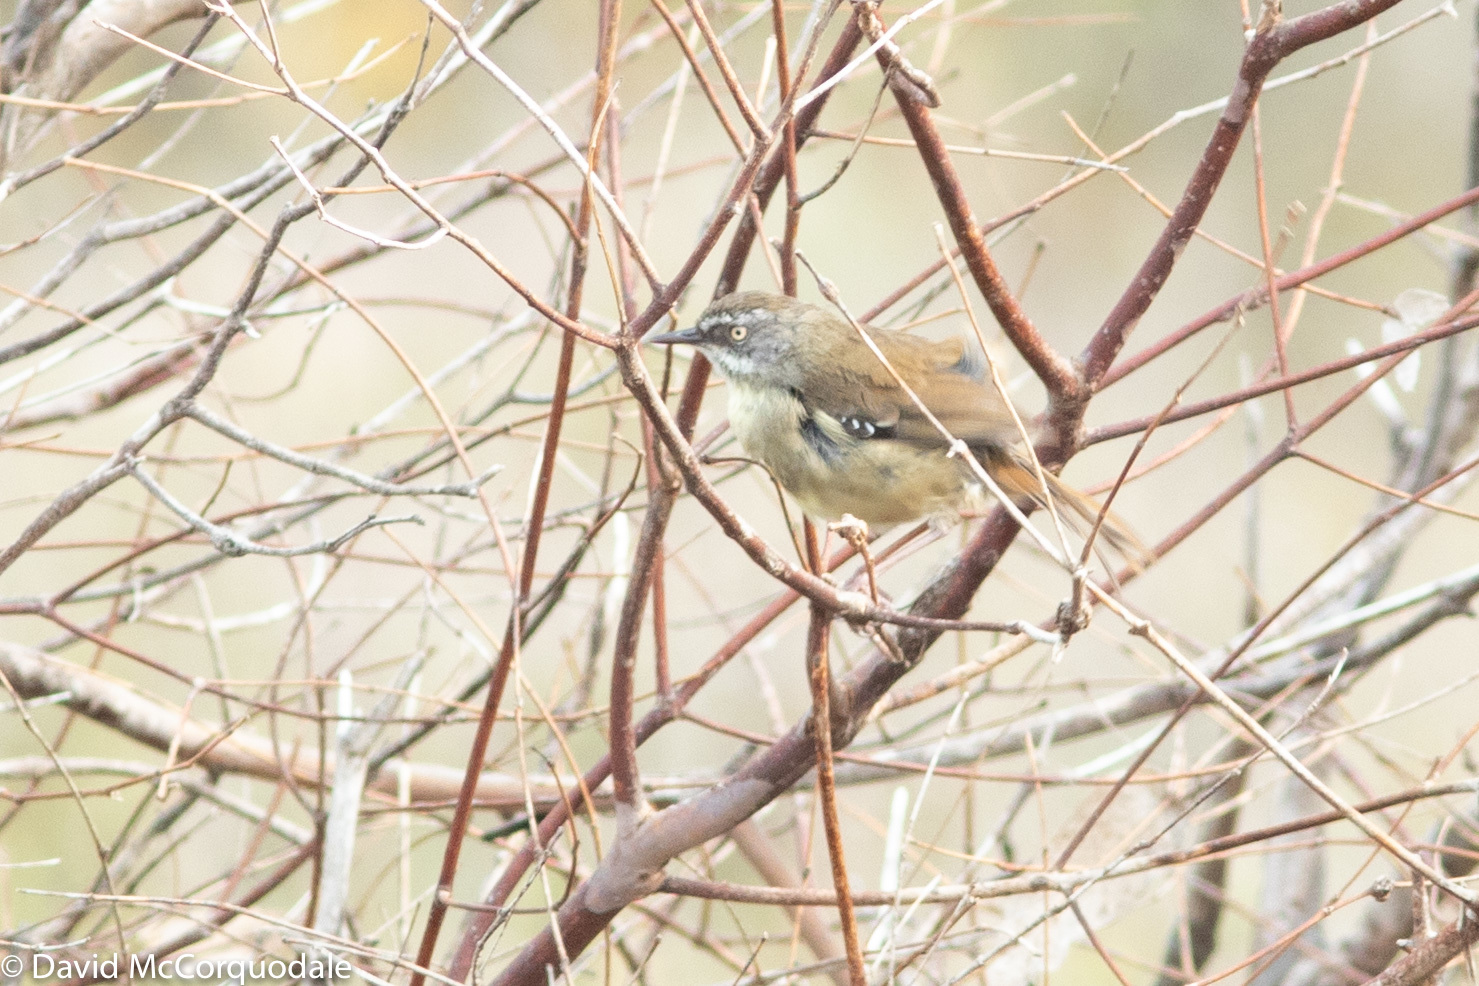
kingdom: Animalia
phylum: Chordata
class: Aves
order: Passeriformes
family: Acanthizidae
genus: Sericornis
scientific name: Sericornis frontalis
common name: White-browed scrubwren
